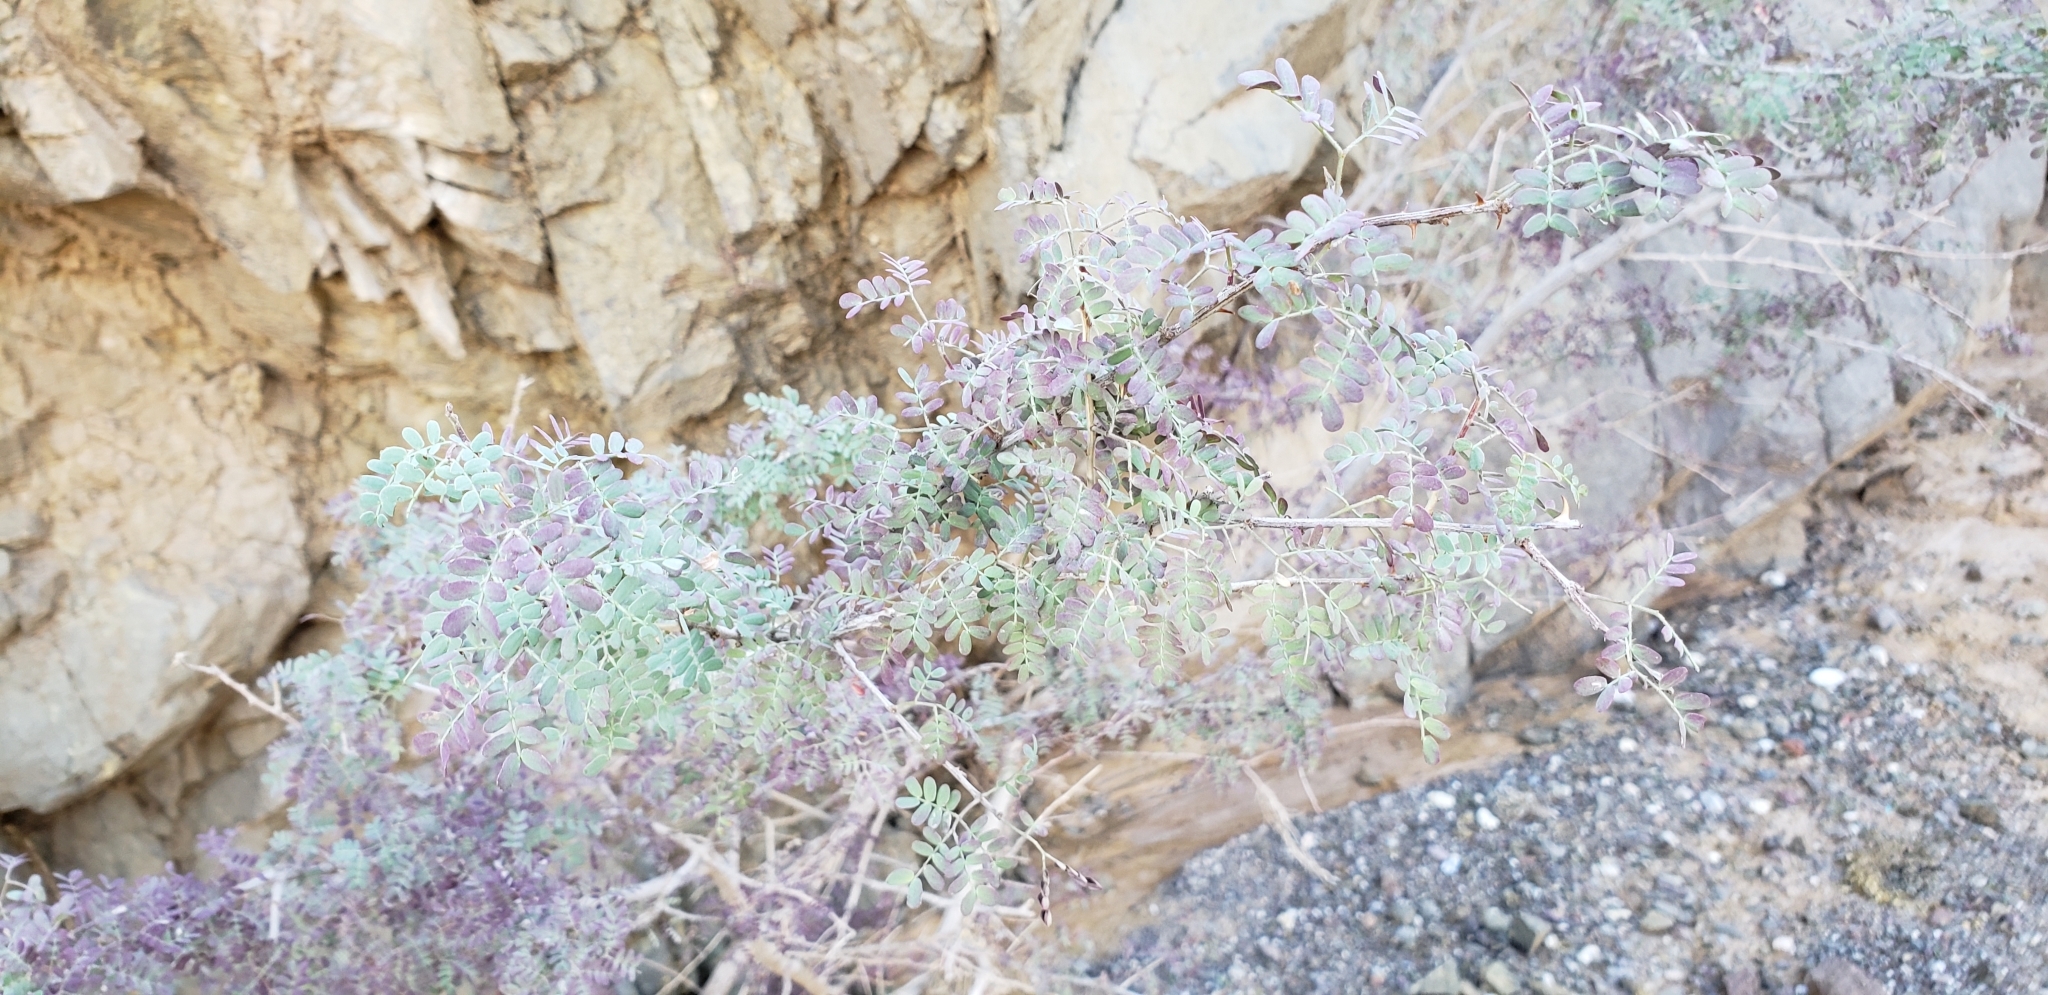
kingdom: Plantae
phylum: Tracheophyta
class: Magnoliopsida
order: Fabales
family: Fabaceae
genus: Senegalia
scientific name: Senegalia greggii
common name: Texas-mimosa
